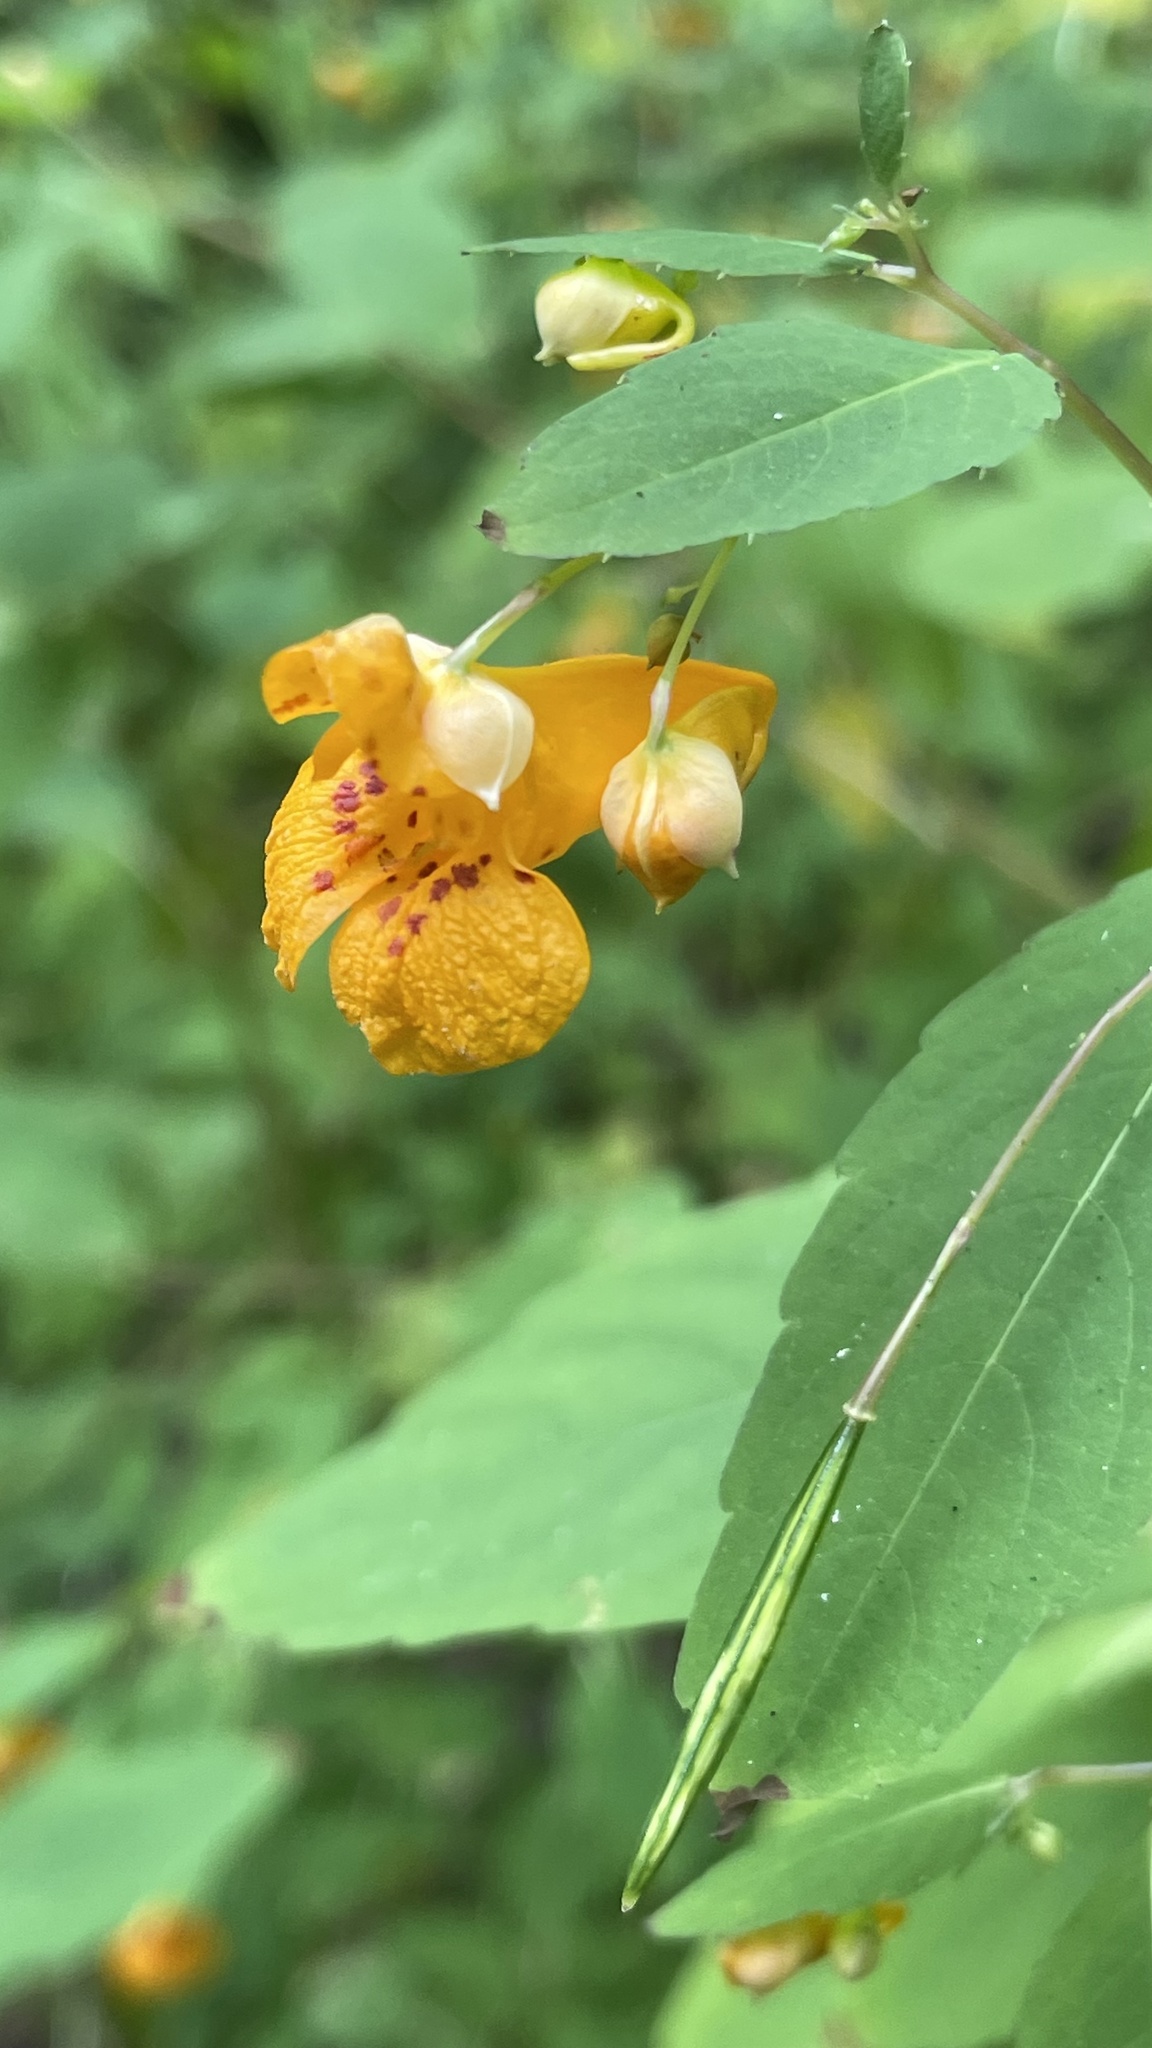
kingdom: Plantae
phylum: Tracheophyta
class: Magnoliopsida
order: Ericales
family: Balsaminaceae
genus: Impatiens
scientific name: Impatiens capensis
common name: Orange balsam
